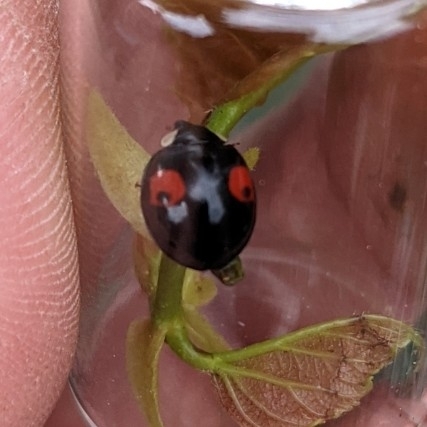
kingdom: Animalia
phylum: Arthropoda
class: Insecta
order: Coleoptera
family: Coccinellidae
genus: Harmonia
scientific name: Harmonia axyridis
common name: Harlequin ladybird
